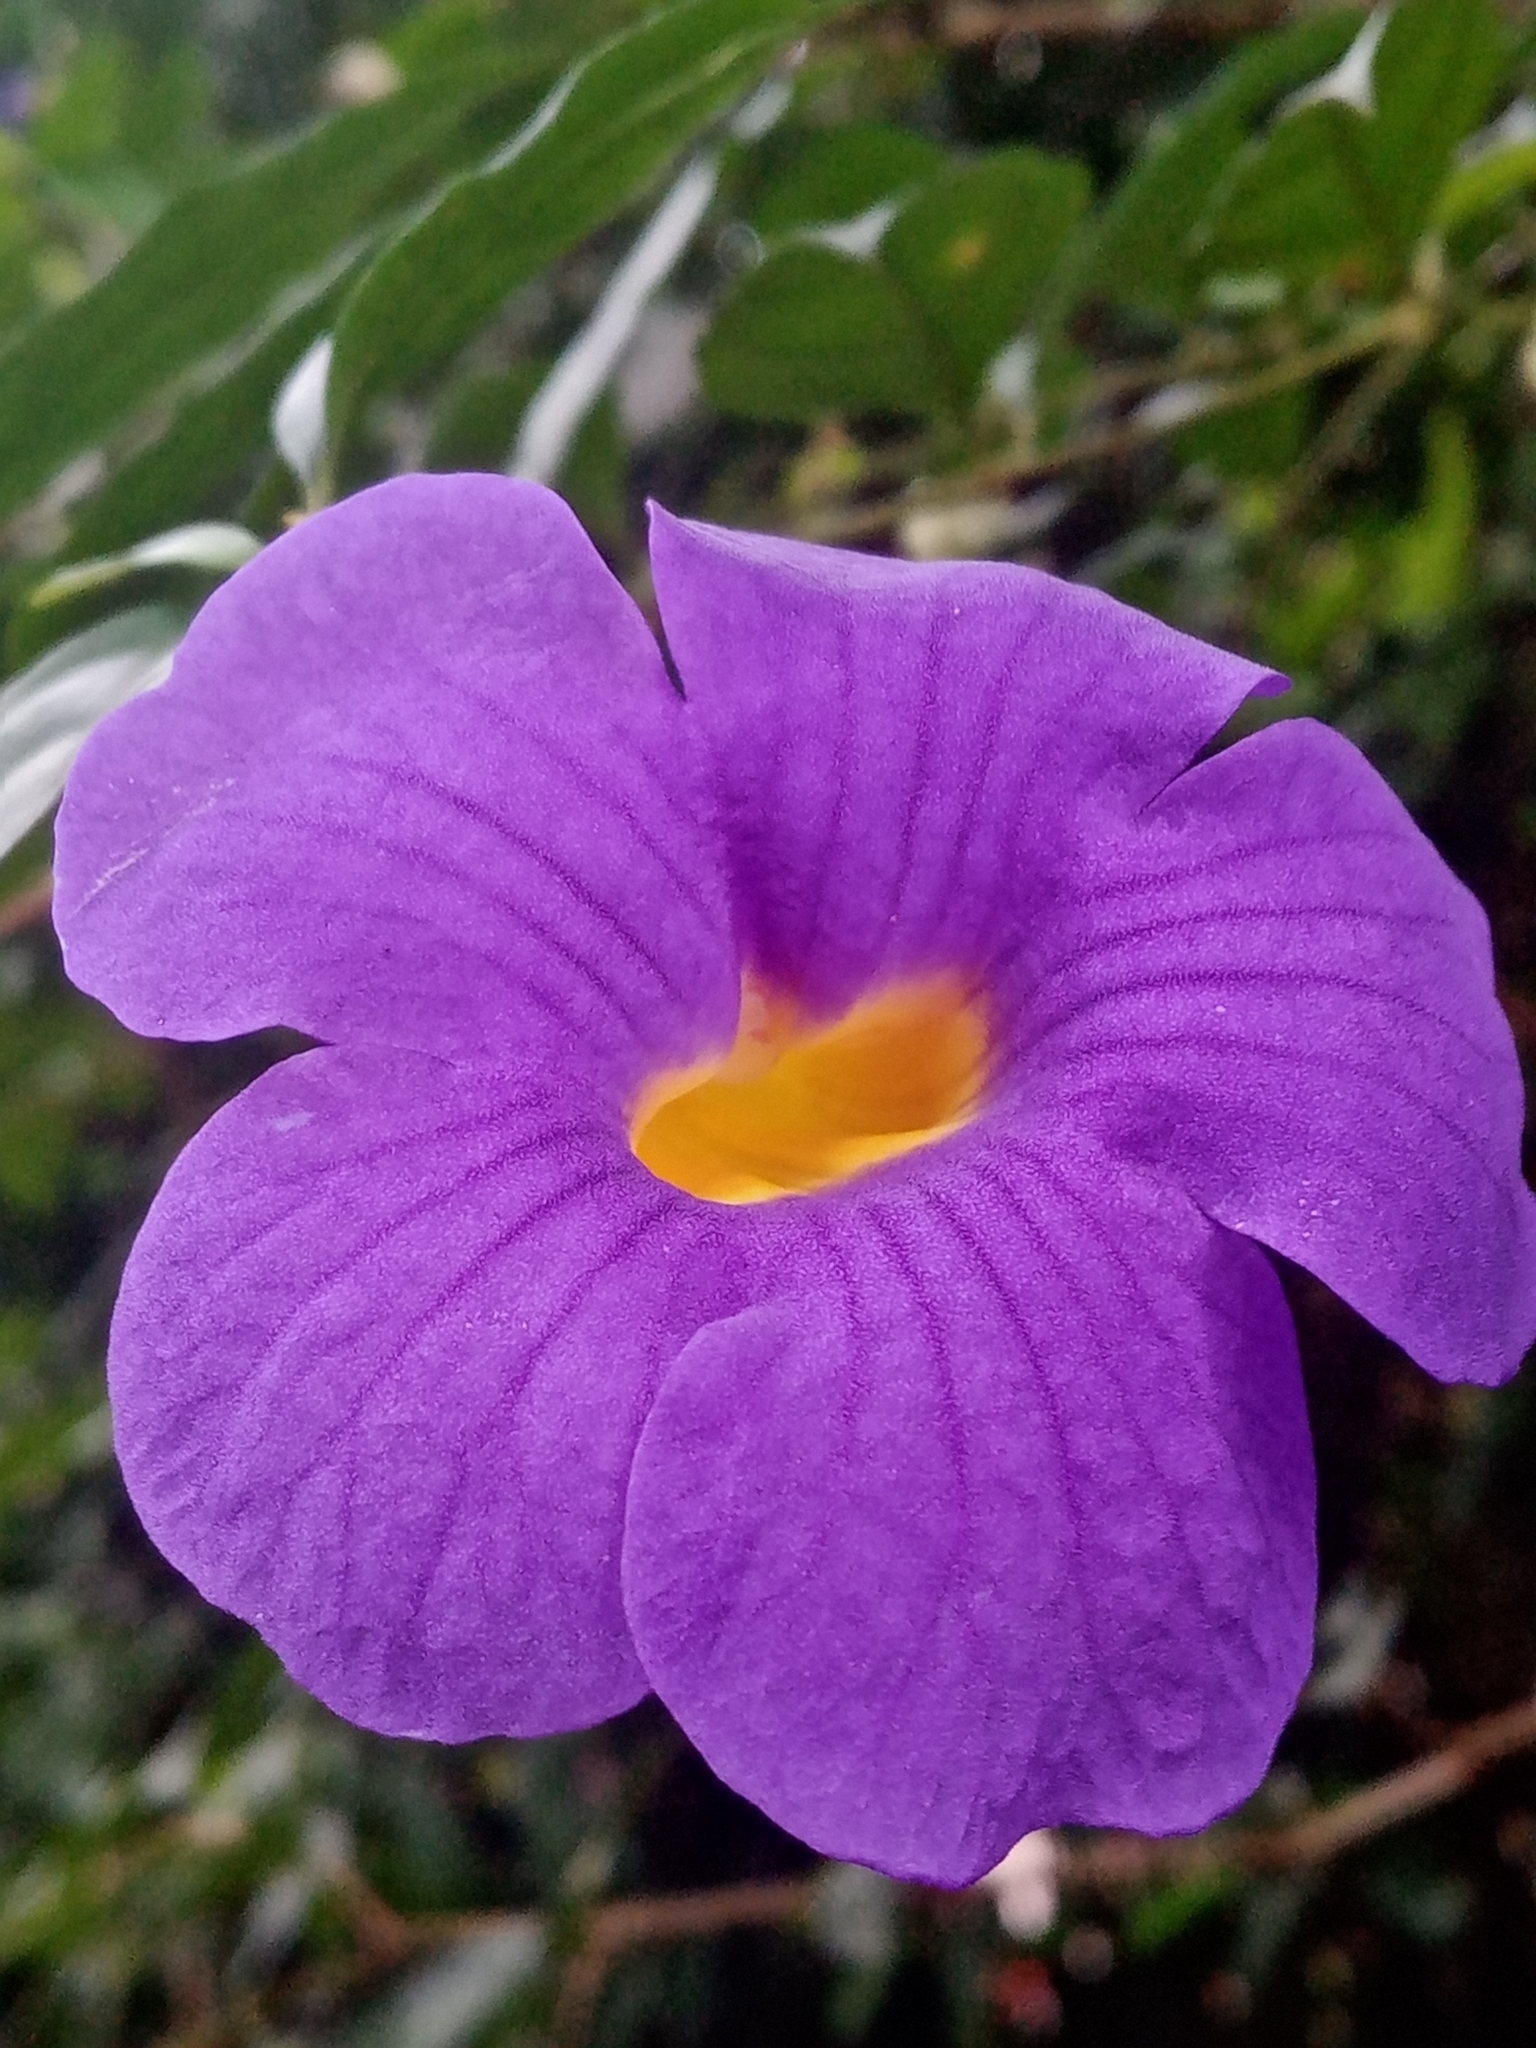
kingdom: Plantae
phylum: Tracheophyta
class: Magnoliopsida
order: Lamiales
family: Acanthaceae
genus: Thunbergia
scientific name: Thunbergia erecta
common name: Bush clockvine
